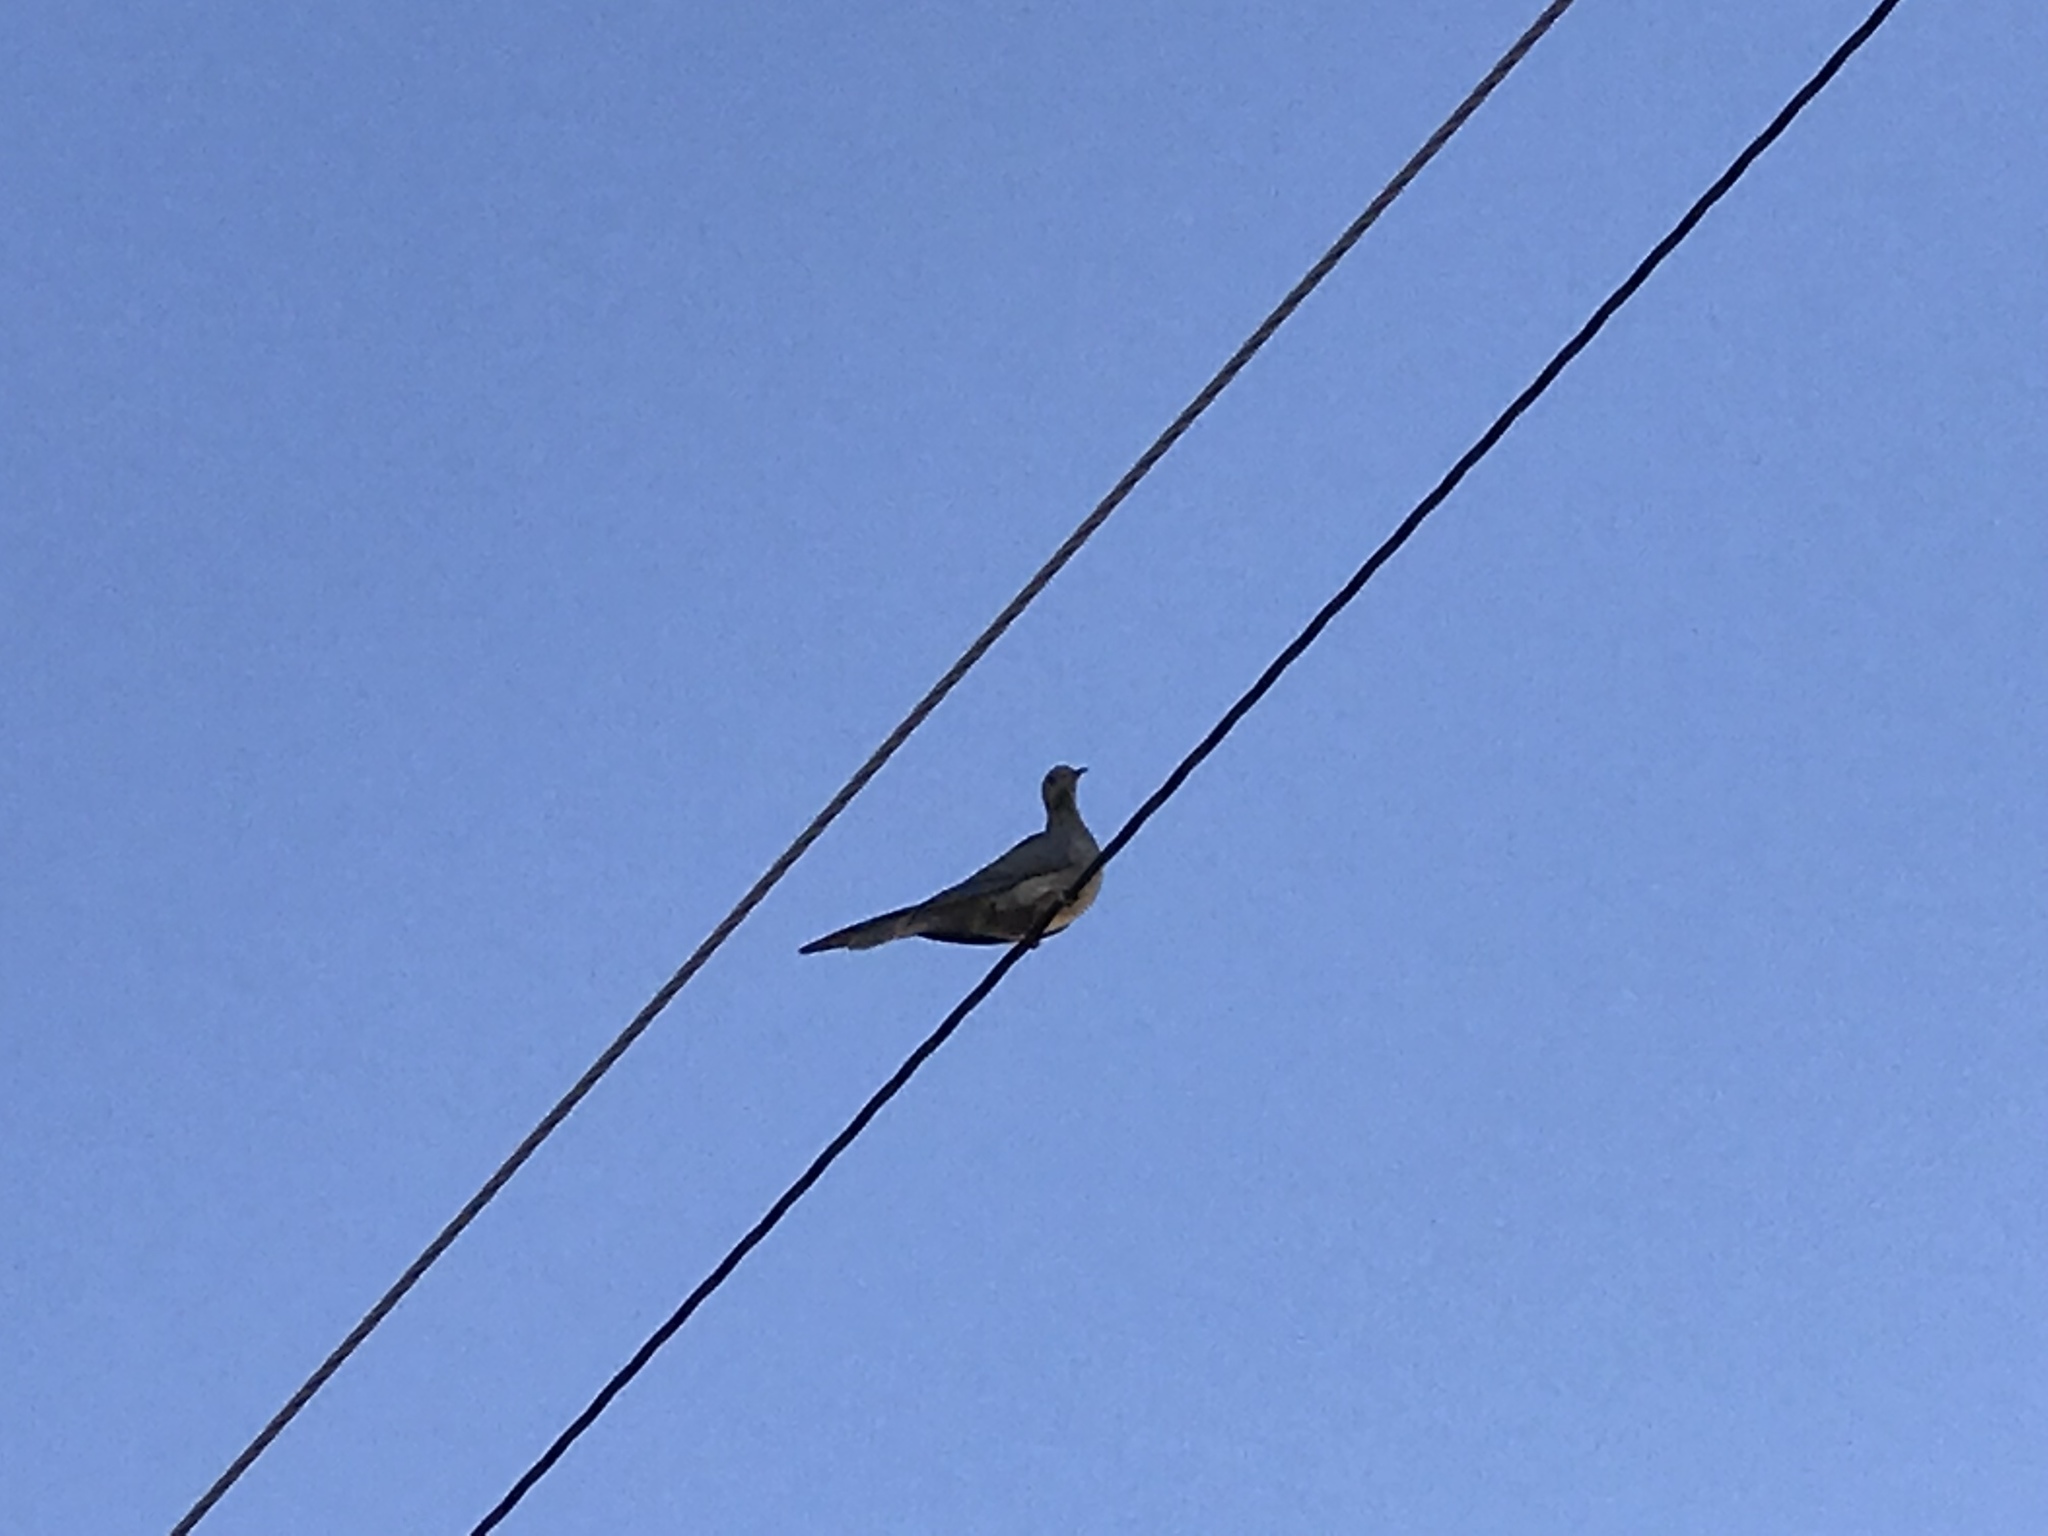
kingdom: Animalia
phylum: Chordata
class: Aves
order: Columbiformes
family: Columbidae
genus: Zenaida
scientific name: Zenaida macroura
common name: Mourning dove
